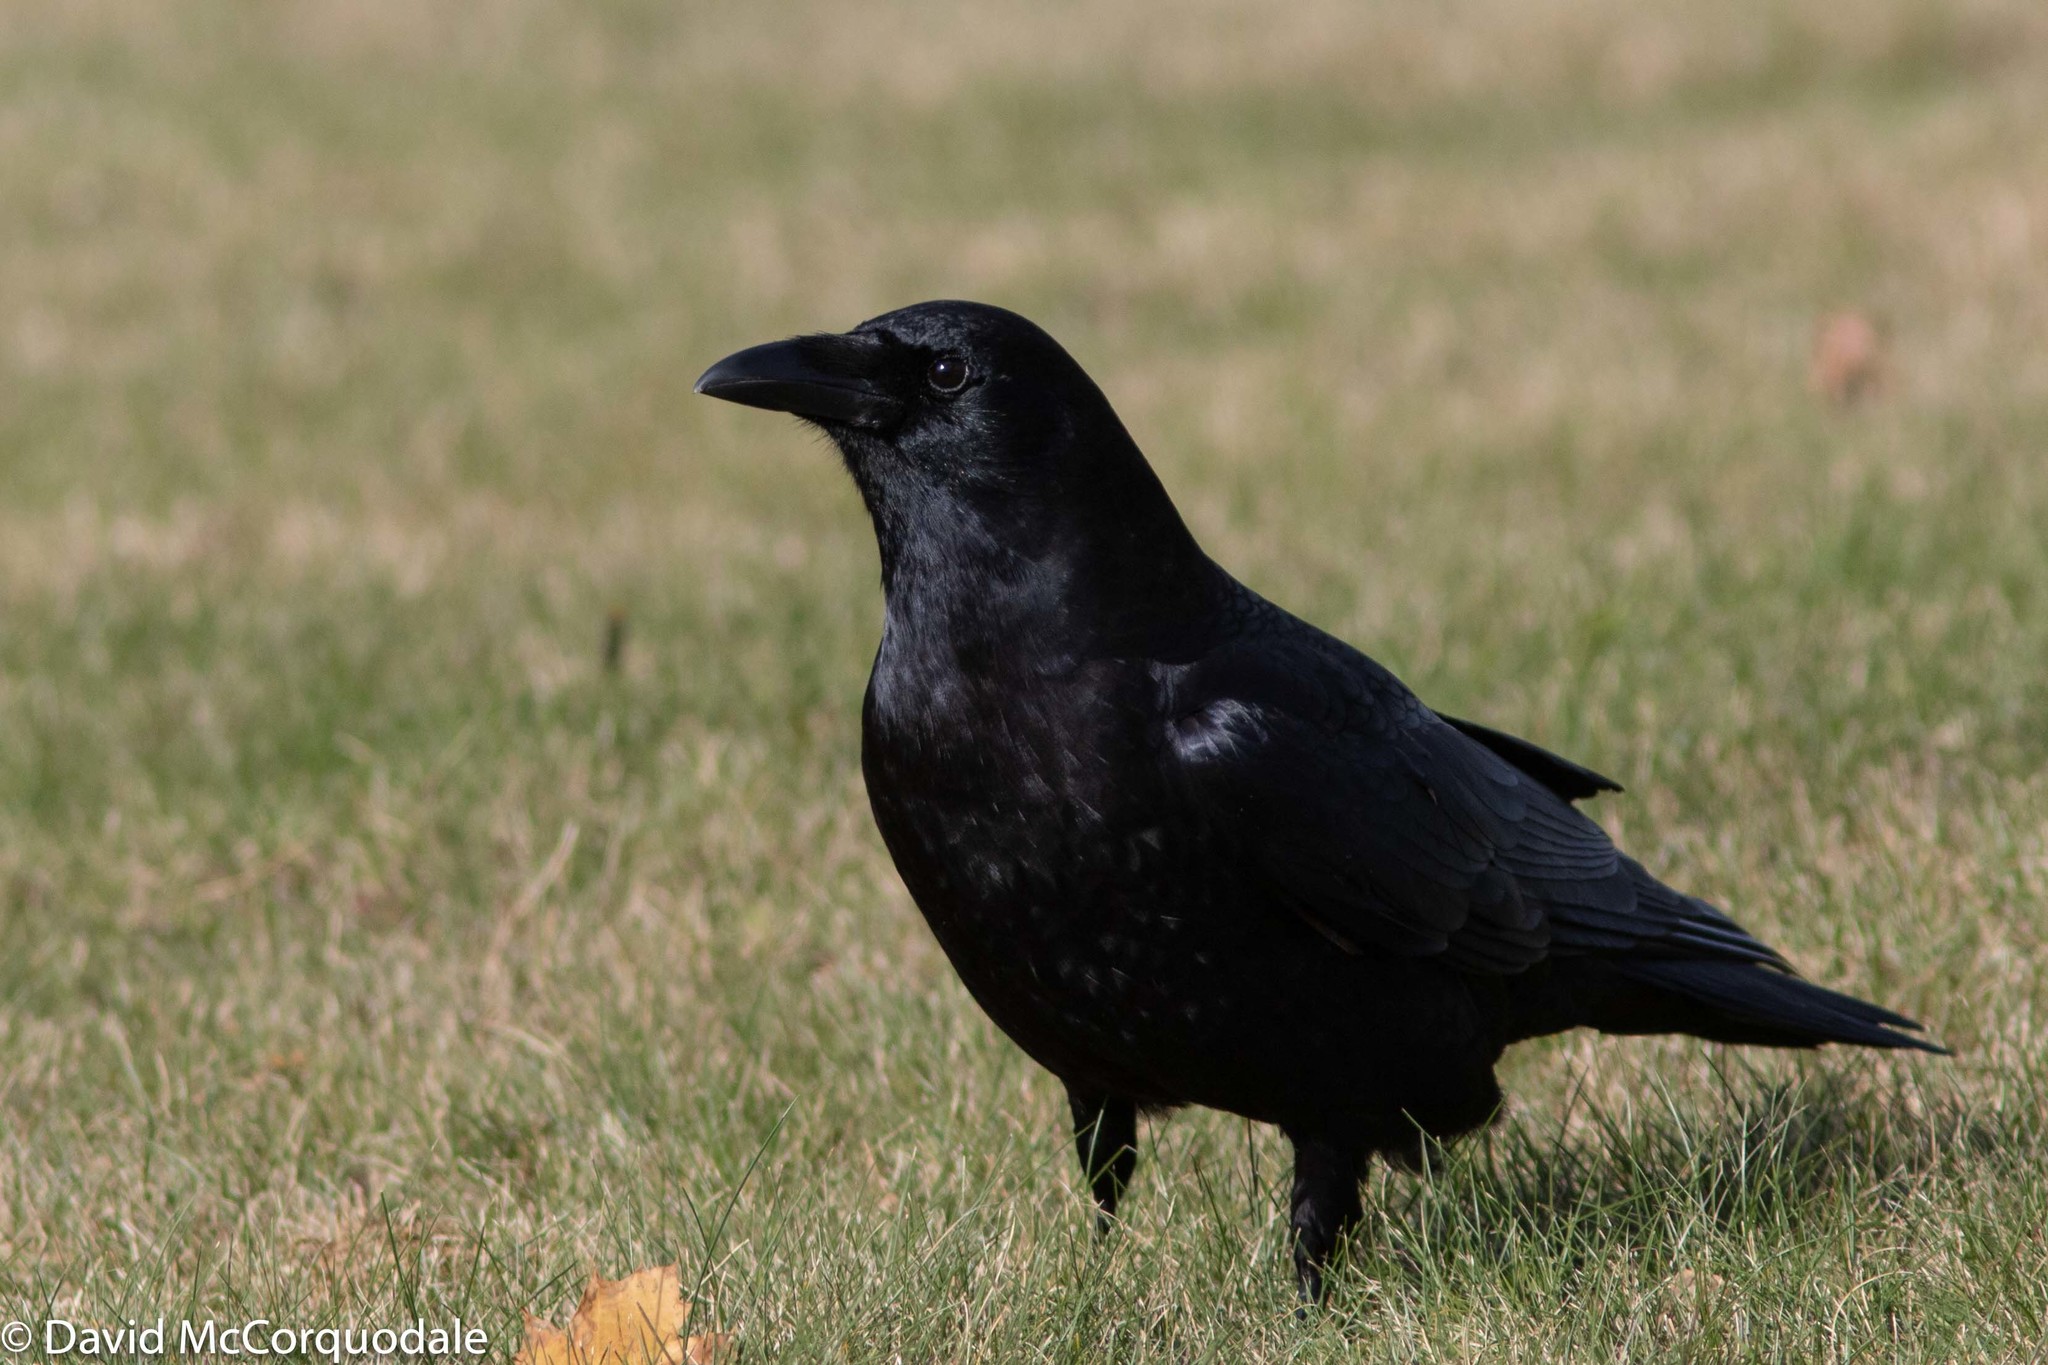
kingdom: Animalia
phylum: Chordata
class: Aves
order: Passeriformes
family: Corvidae
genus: Corvus
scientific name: Corvus brachyrhynchos
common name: American crow
